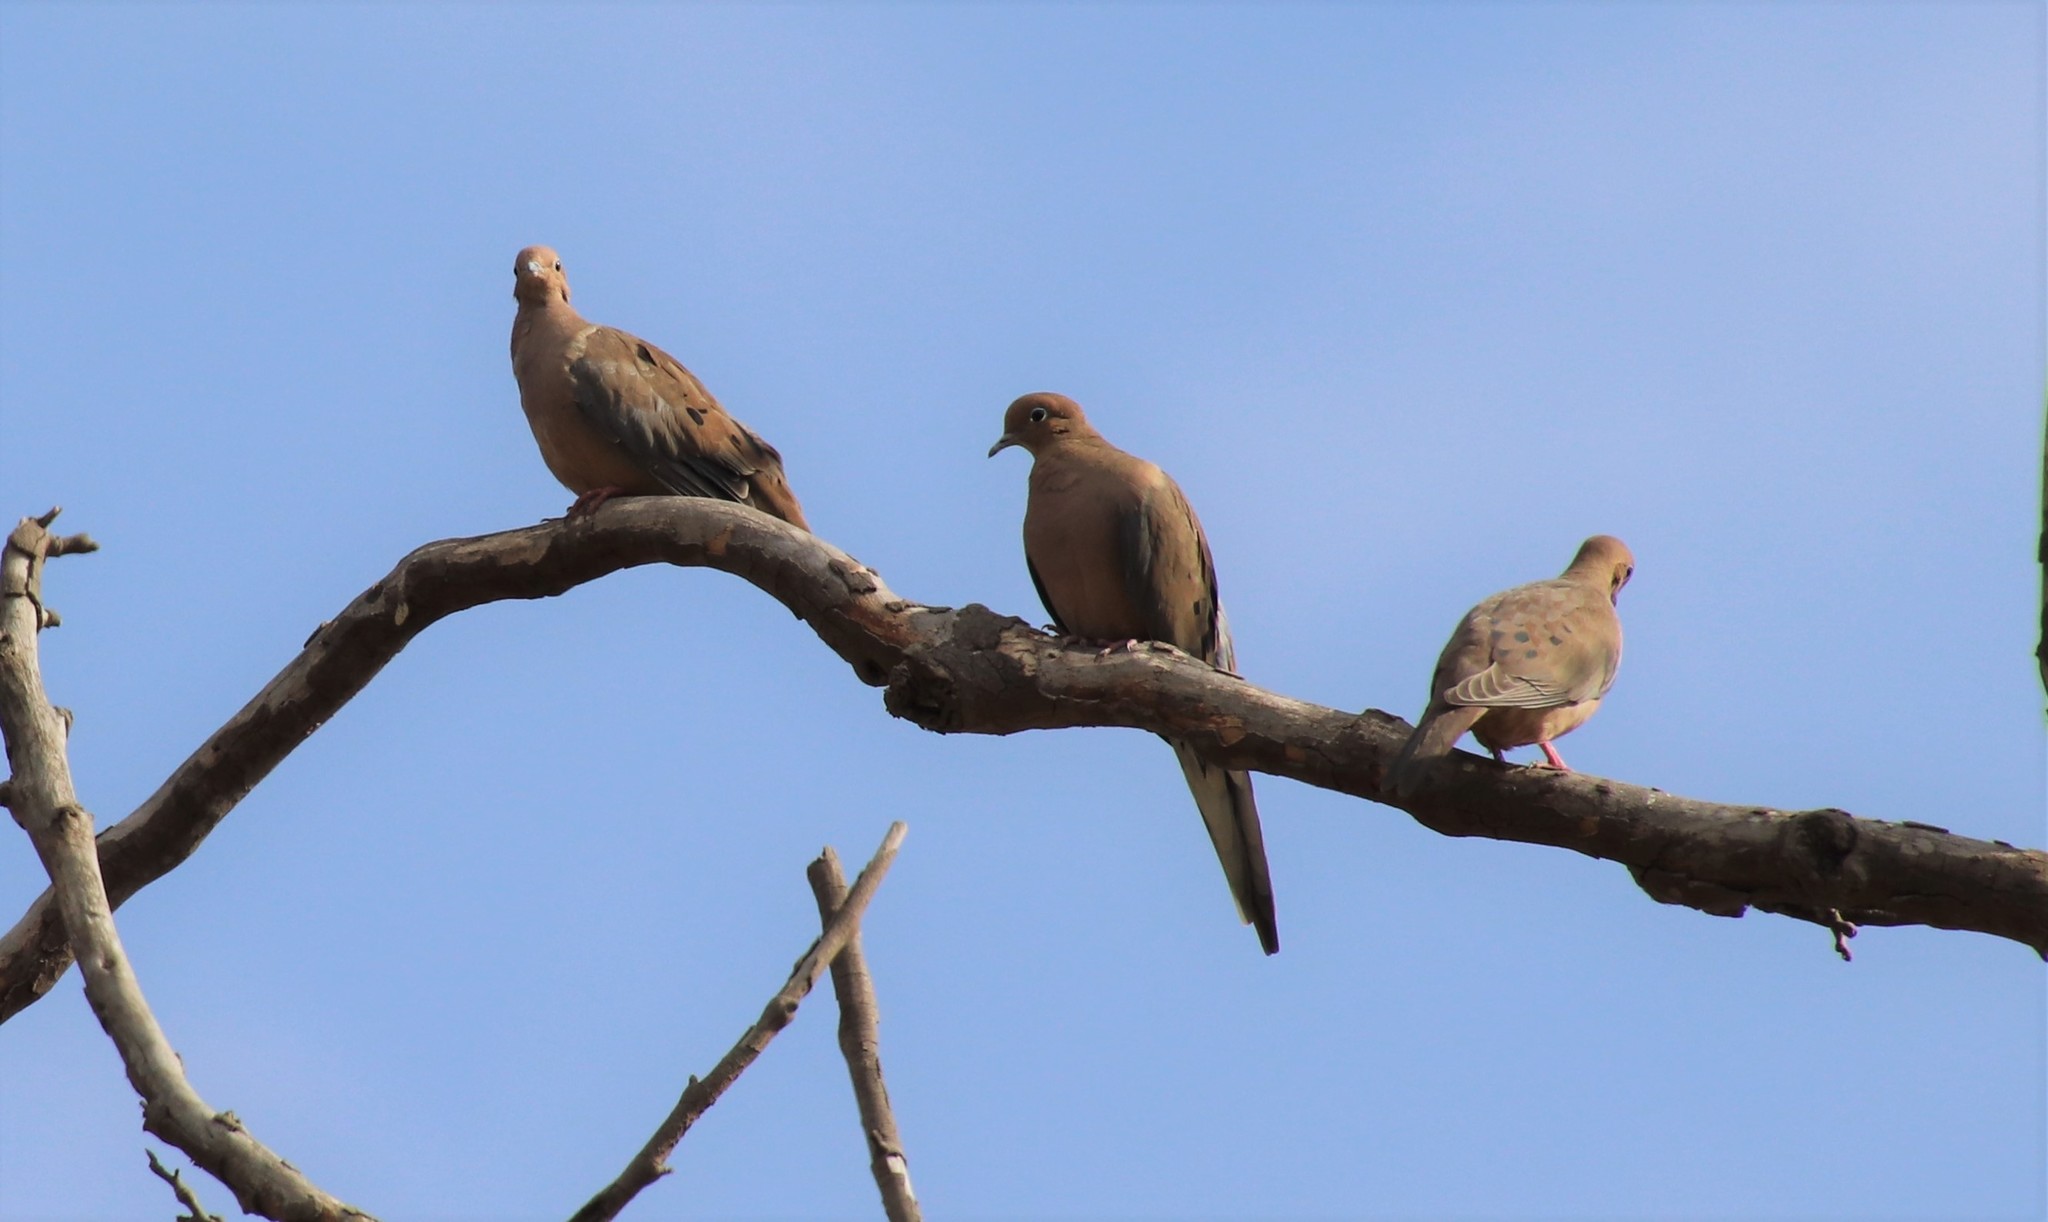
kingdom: Animalia
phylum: Chordata
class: Aves
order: Columbiformes
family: Columbidae
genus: Zenaida
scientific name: Zenaida macroura
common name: Mourning dove
